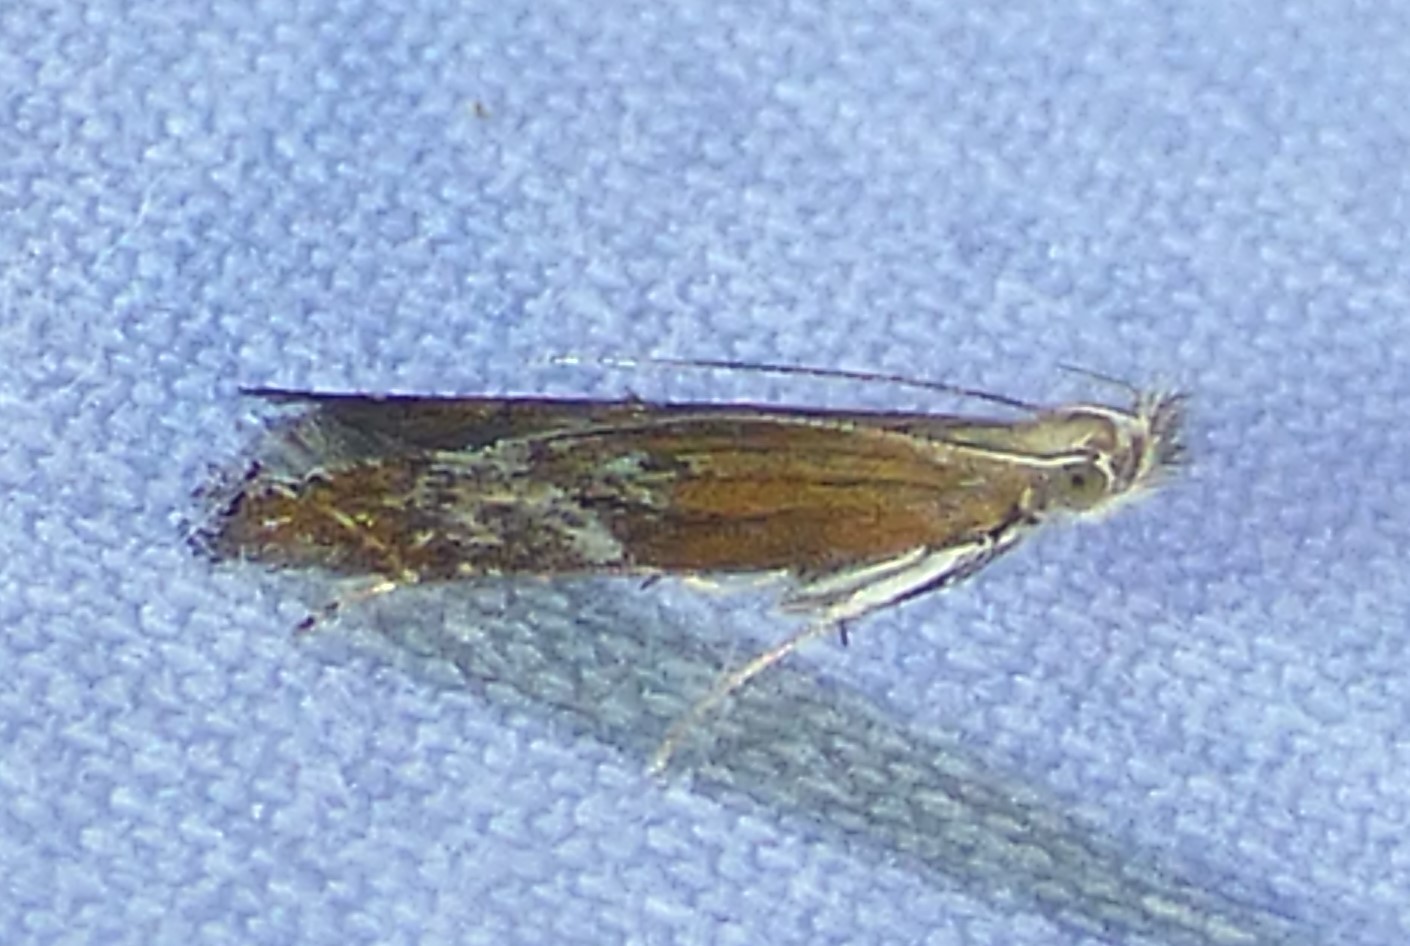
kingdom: Animalia
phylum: Arthropoda
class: Insecta
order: Lepidoptera
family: Gelechiidae
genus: Isophrictis
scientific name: Isophrictis anteliella
